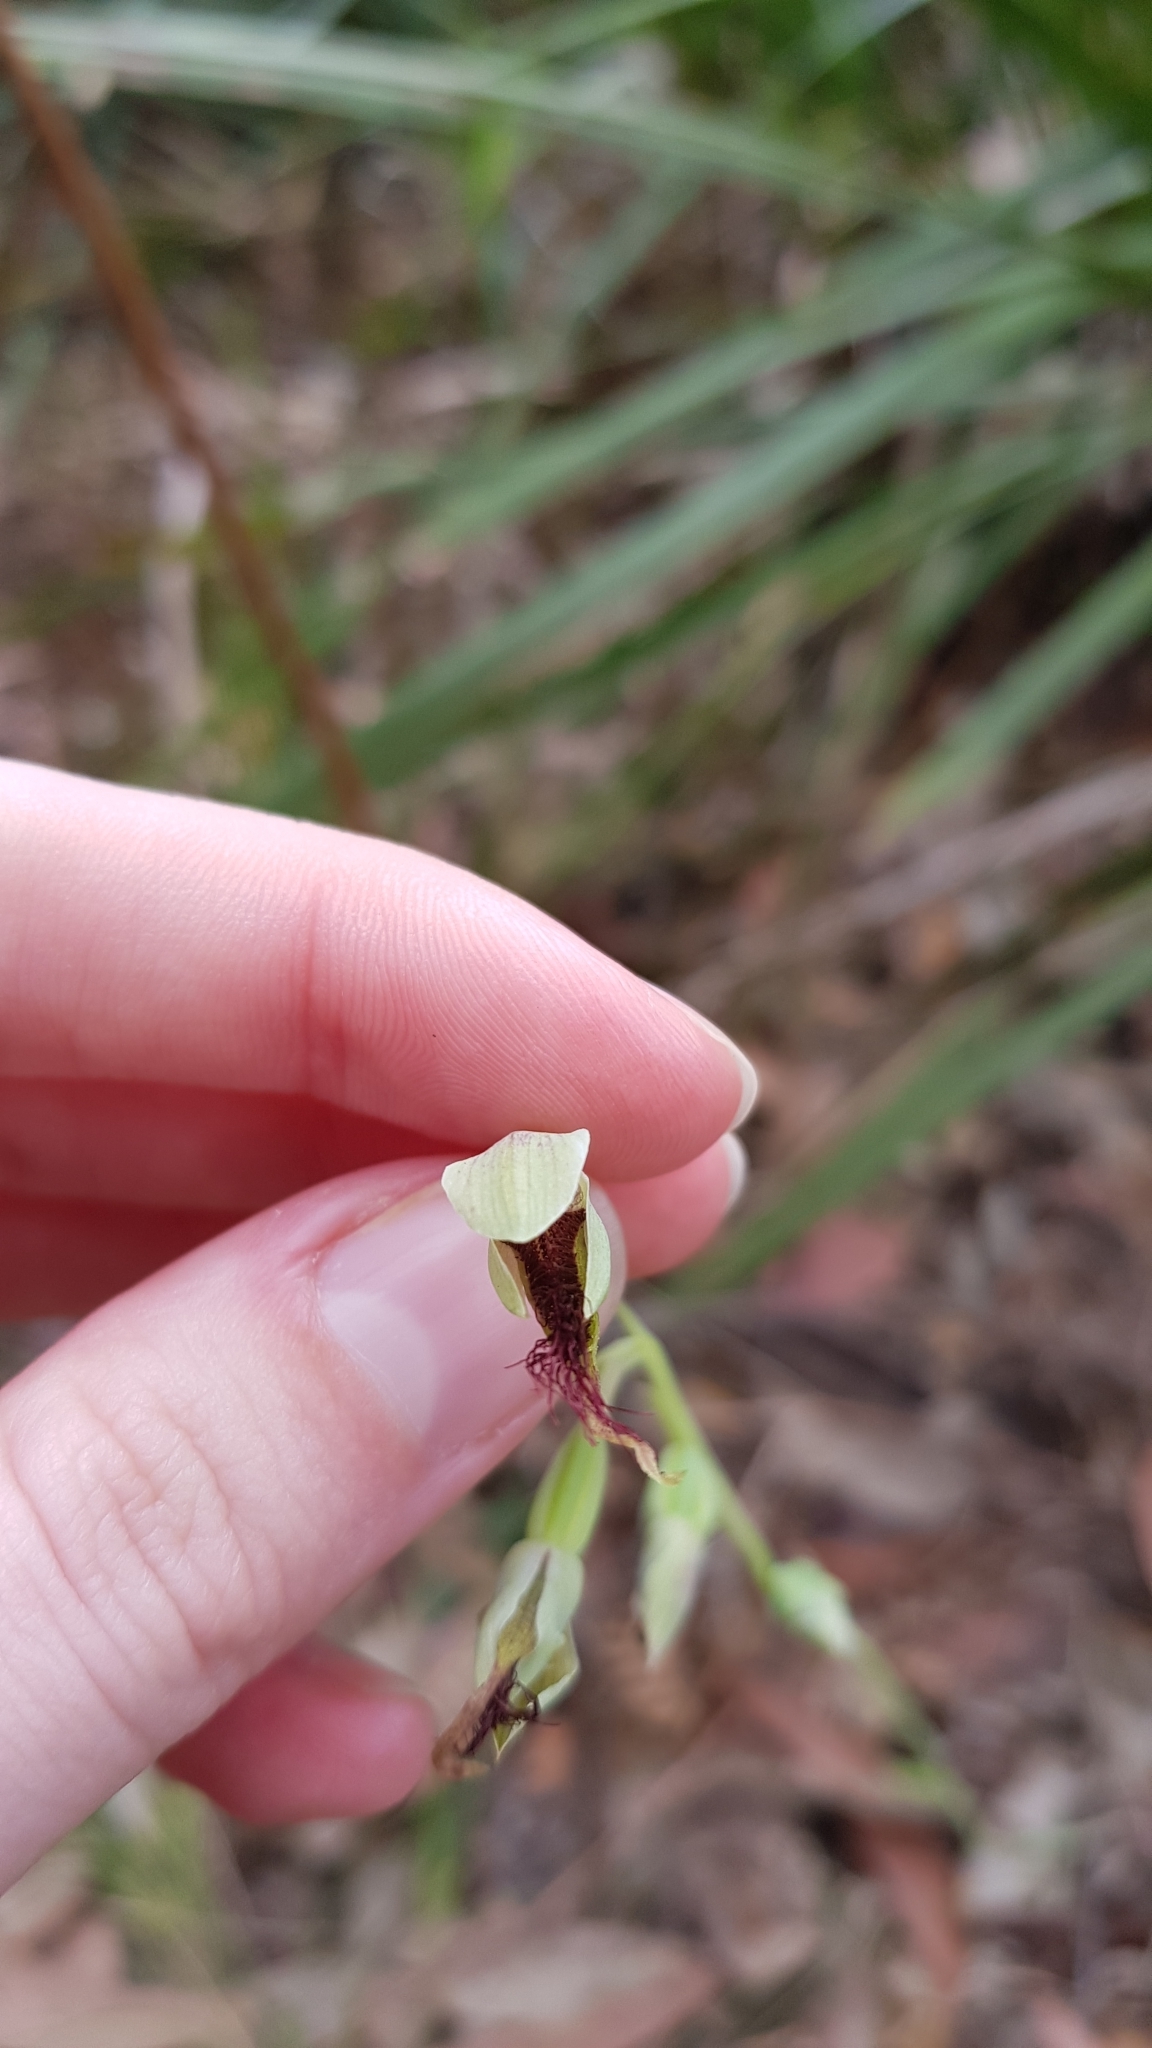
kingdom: Plantae
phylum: Tracheophyta
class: Liliopsida
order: Asparagales
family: Orchidaceae
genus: Calochilus
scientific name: Calochilus paludosus
